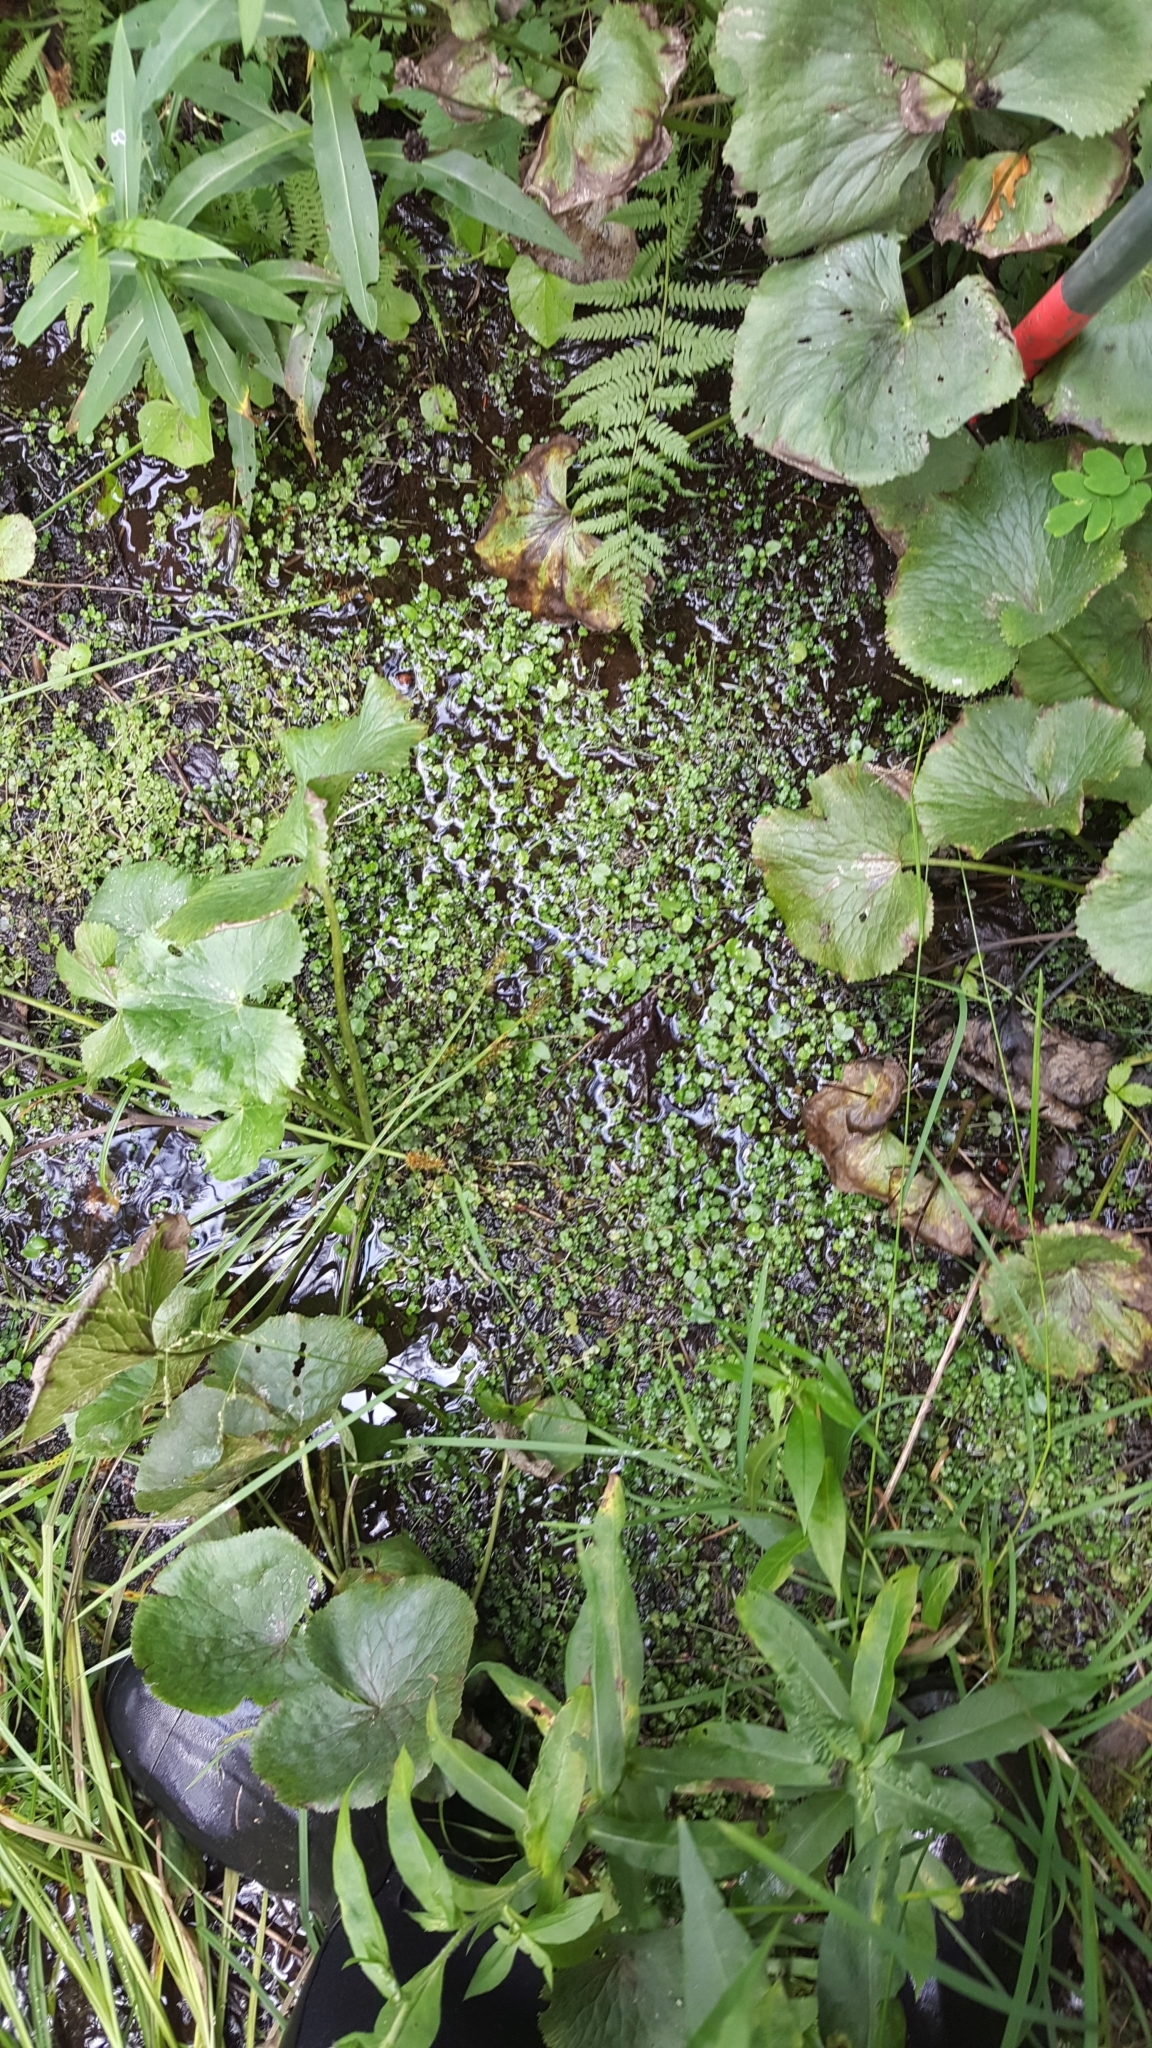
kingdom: Plantae
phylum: Tracheophyta
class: Magnoliopsida
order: Saxifragales
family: Saxifragaceae
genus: Chrysosplenium
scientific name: Chrysosplenium americanum
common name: American golden-saxifrage
